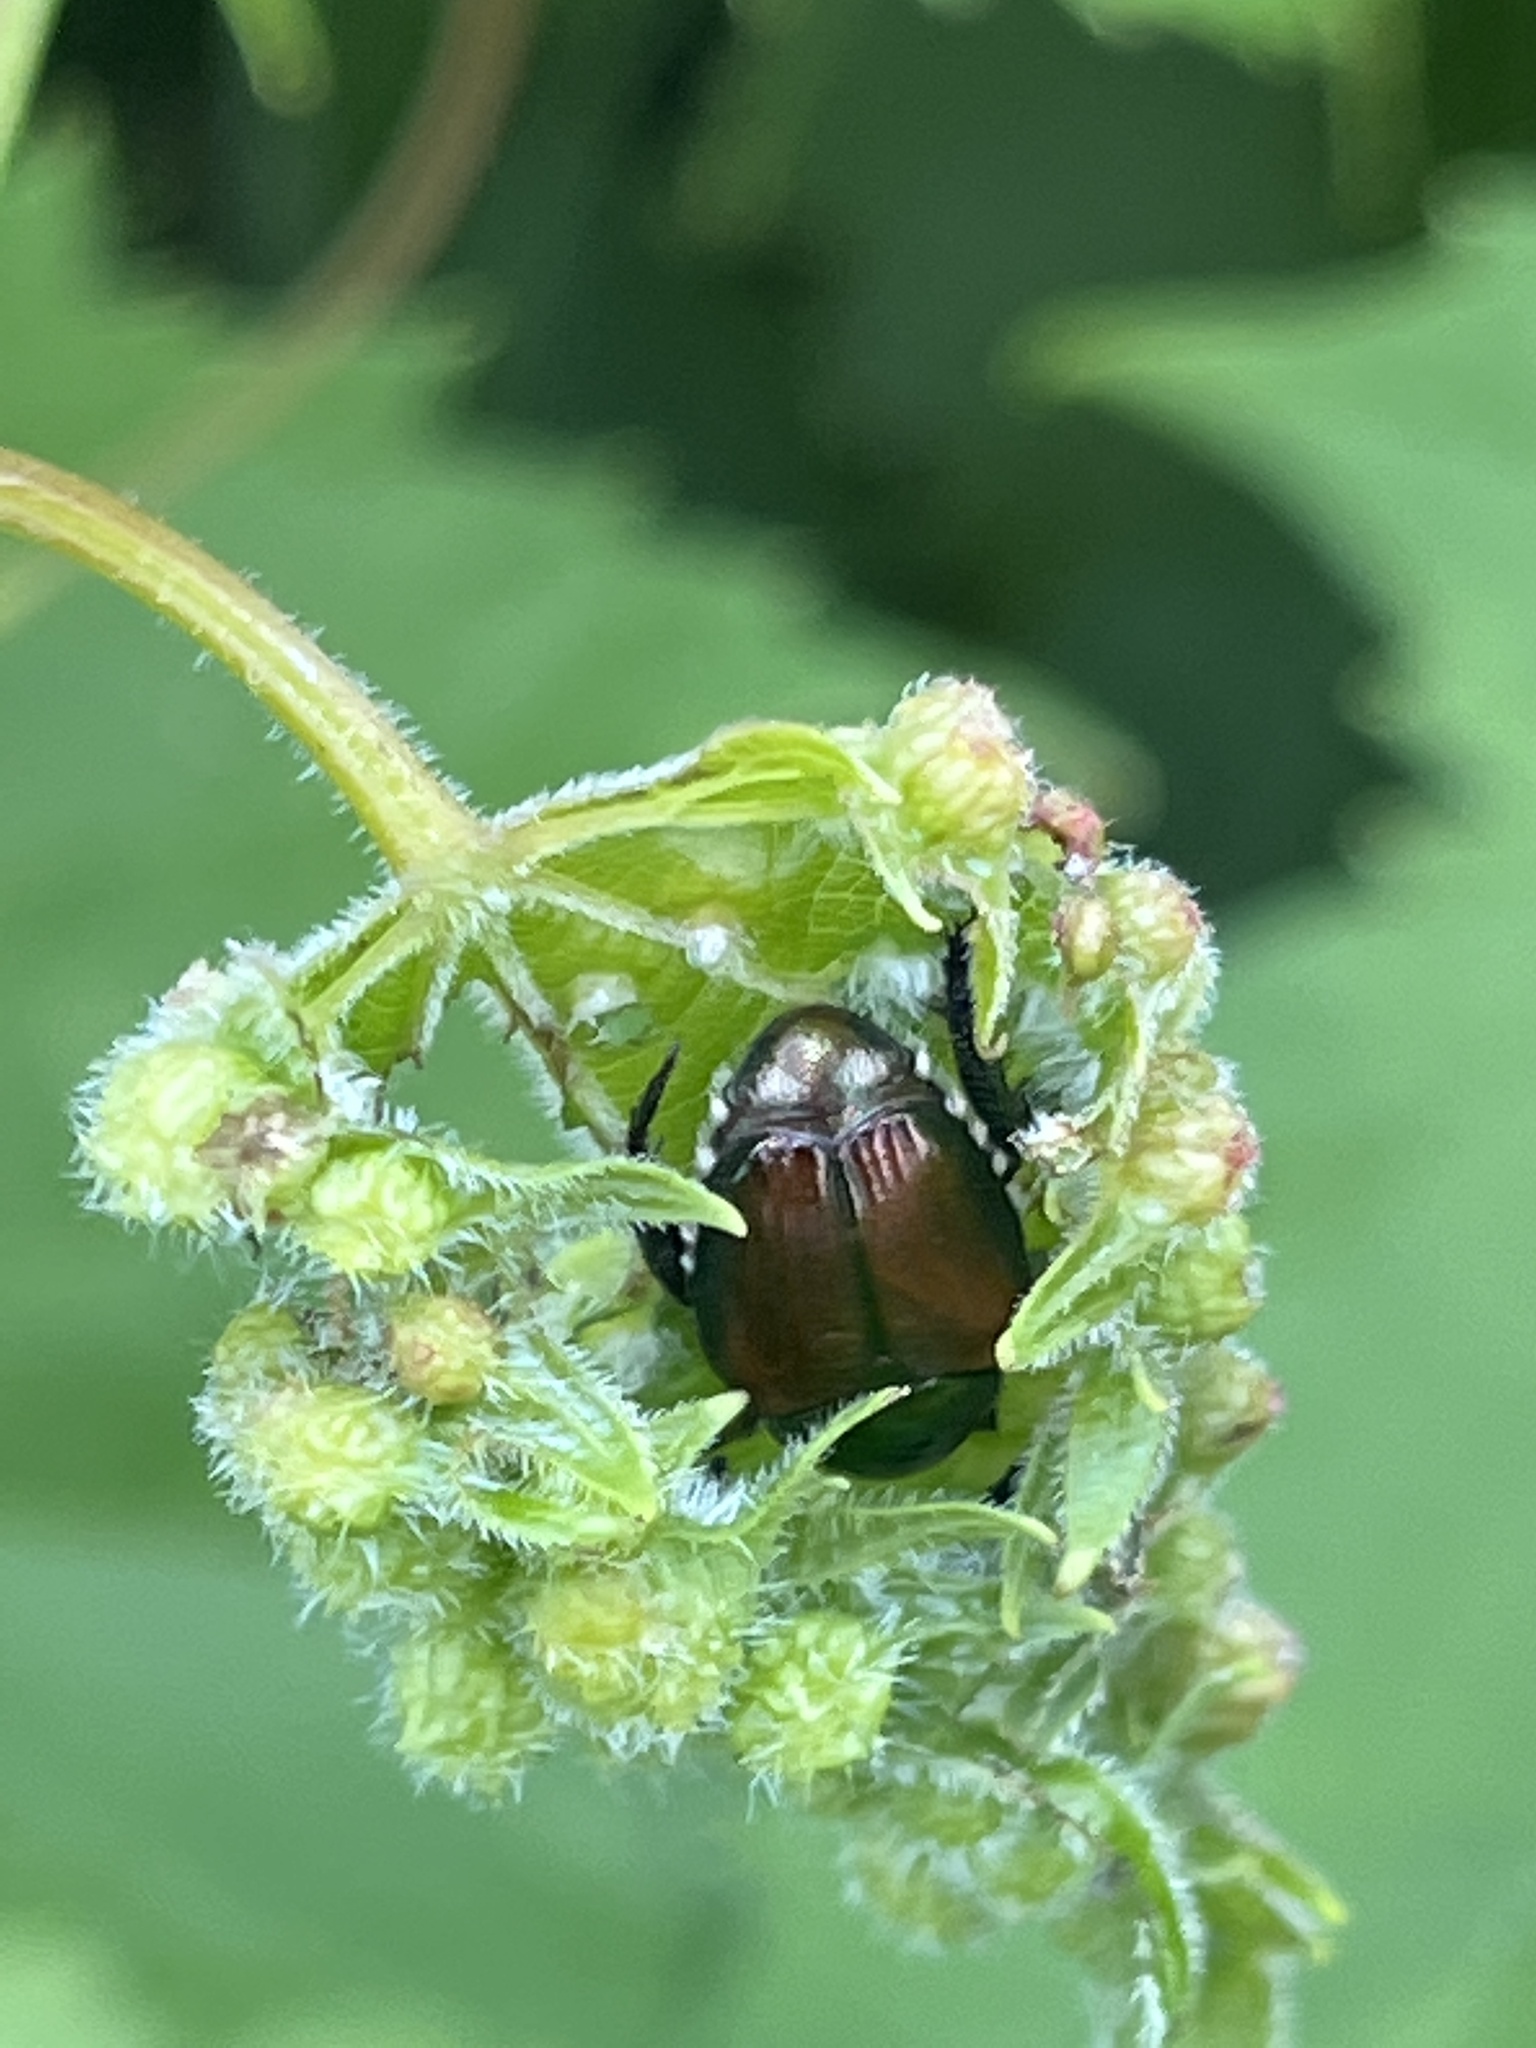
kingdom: Animalia
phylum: Arthropoda
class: Insecta
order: Coleoptera
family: Scarabaeidae
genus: Popillia
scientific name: Popillia japonica
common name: Japanese beetle
